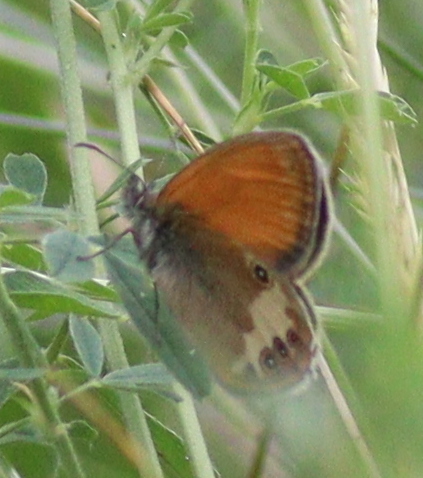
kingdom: Animalia
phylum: Arthropoda
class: Insecta
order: Lepidoptera
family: Nymphalidae
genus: Coenonympha
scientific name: Coenonympha arcania
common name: Pearly heath
